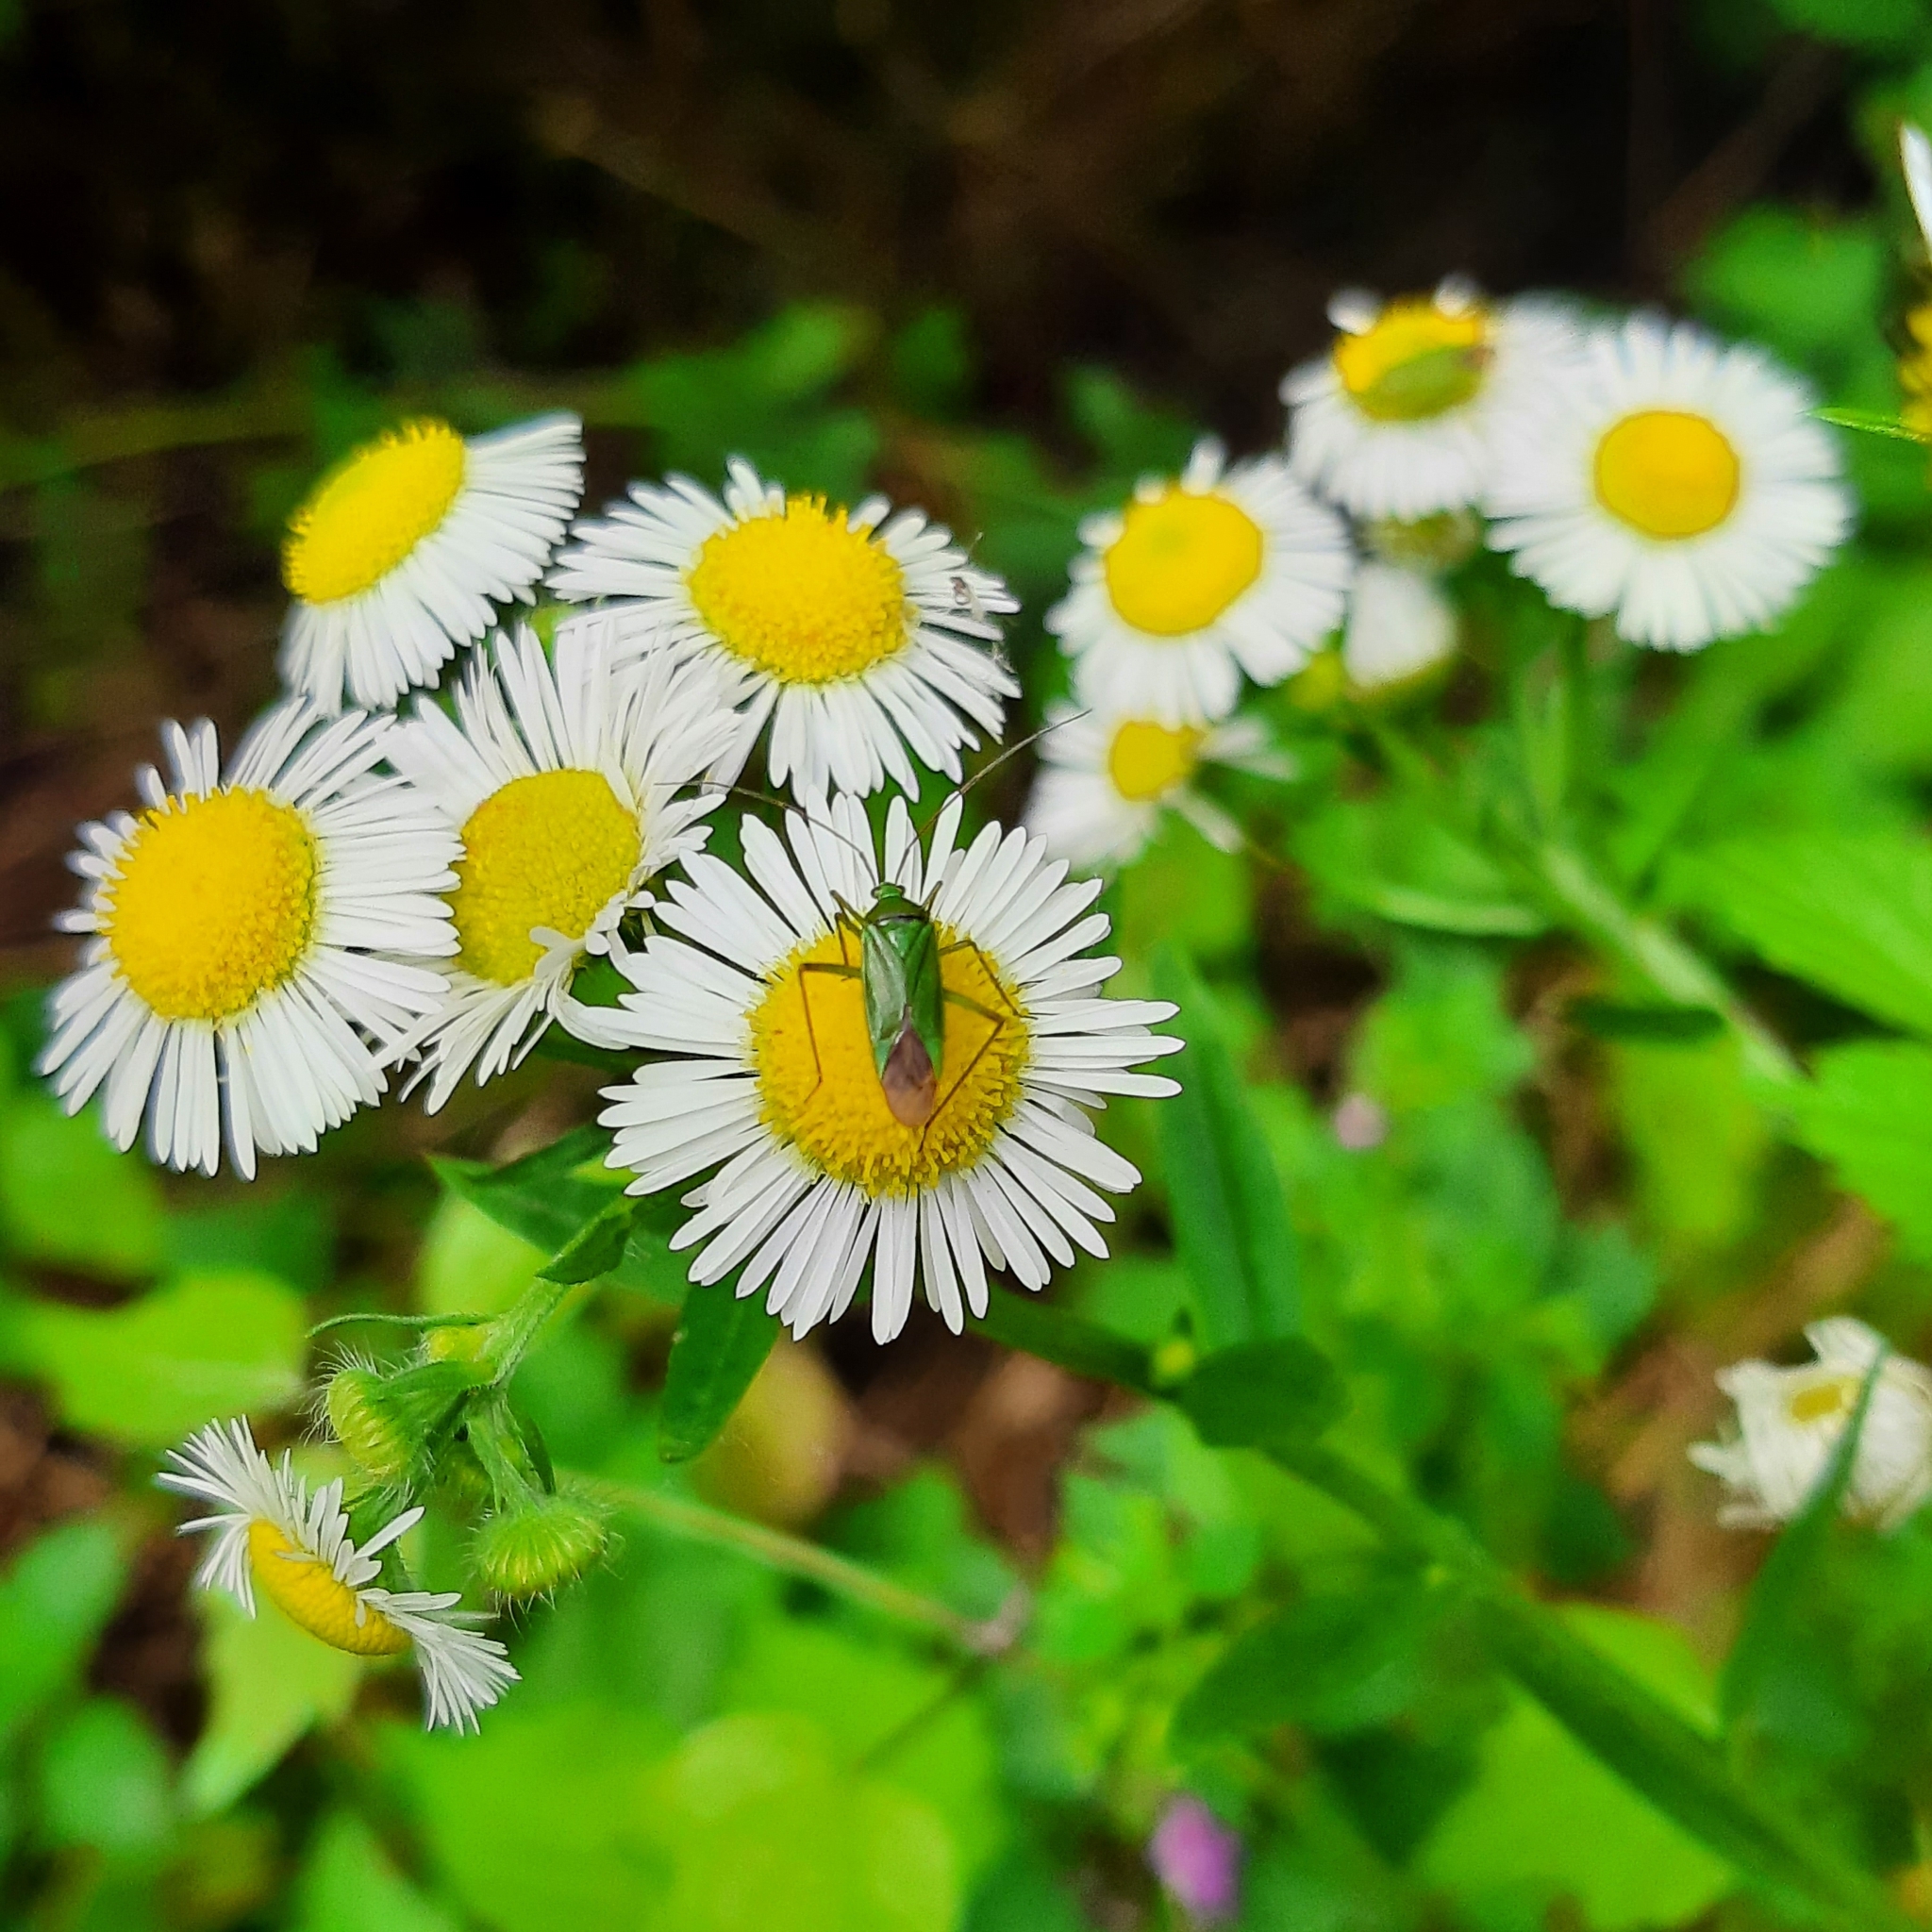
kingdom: Animalia
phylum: Arthropoda
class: Insecta
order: Hemiptera
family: Miridae
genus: Calocoris
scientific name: Calocoris affinis
